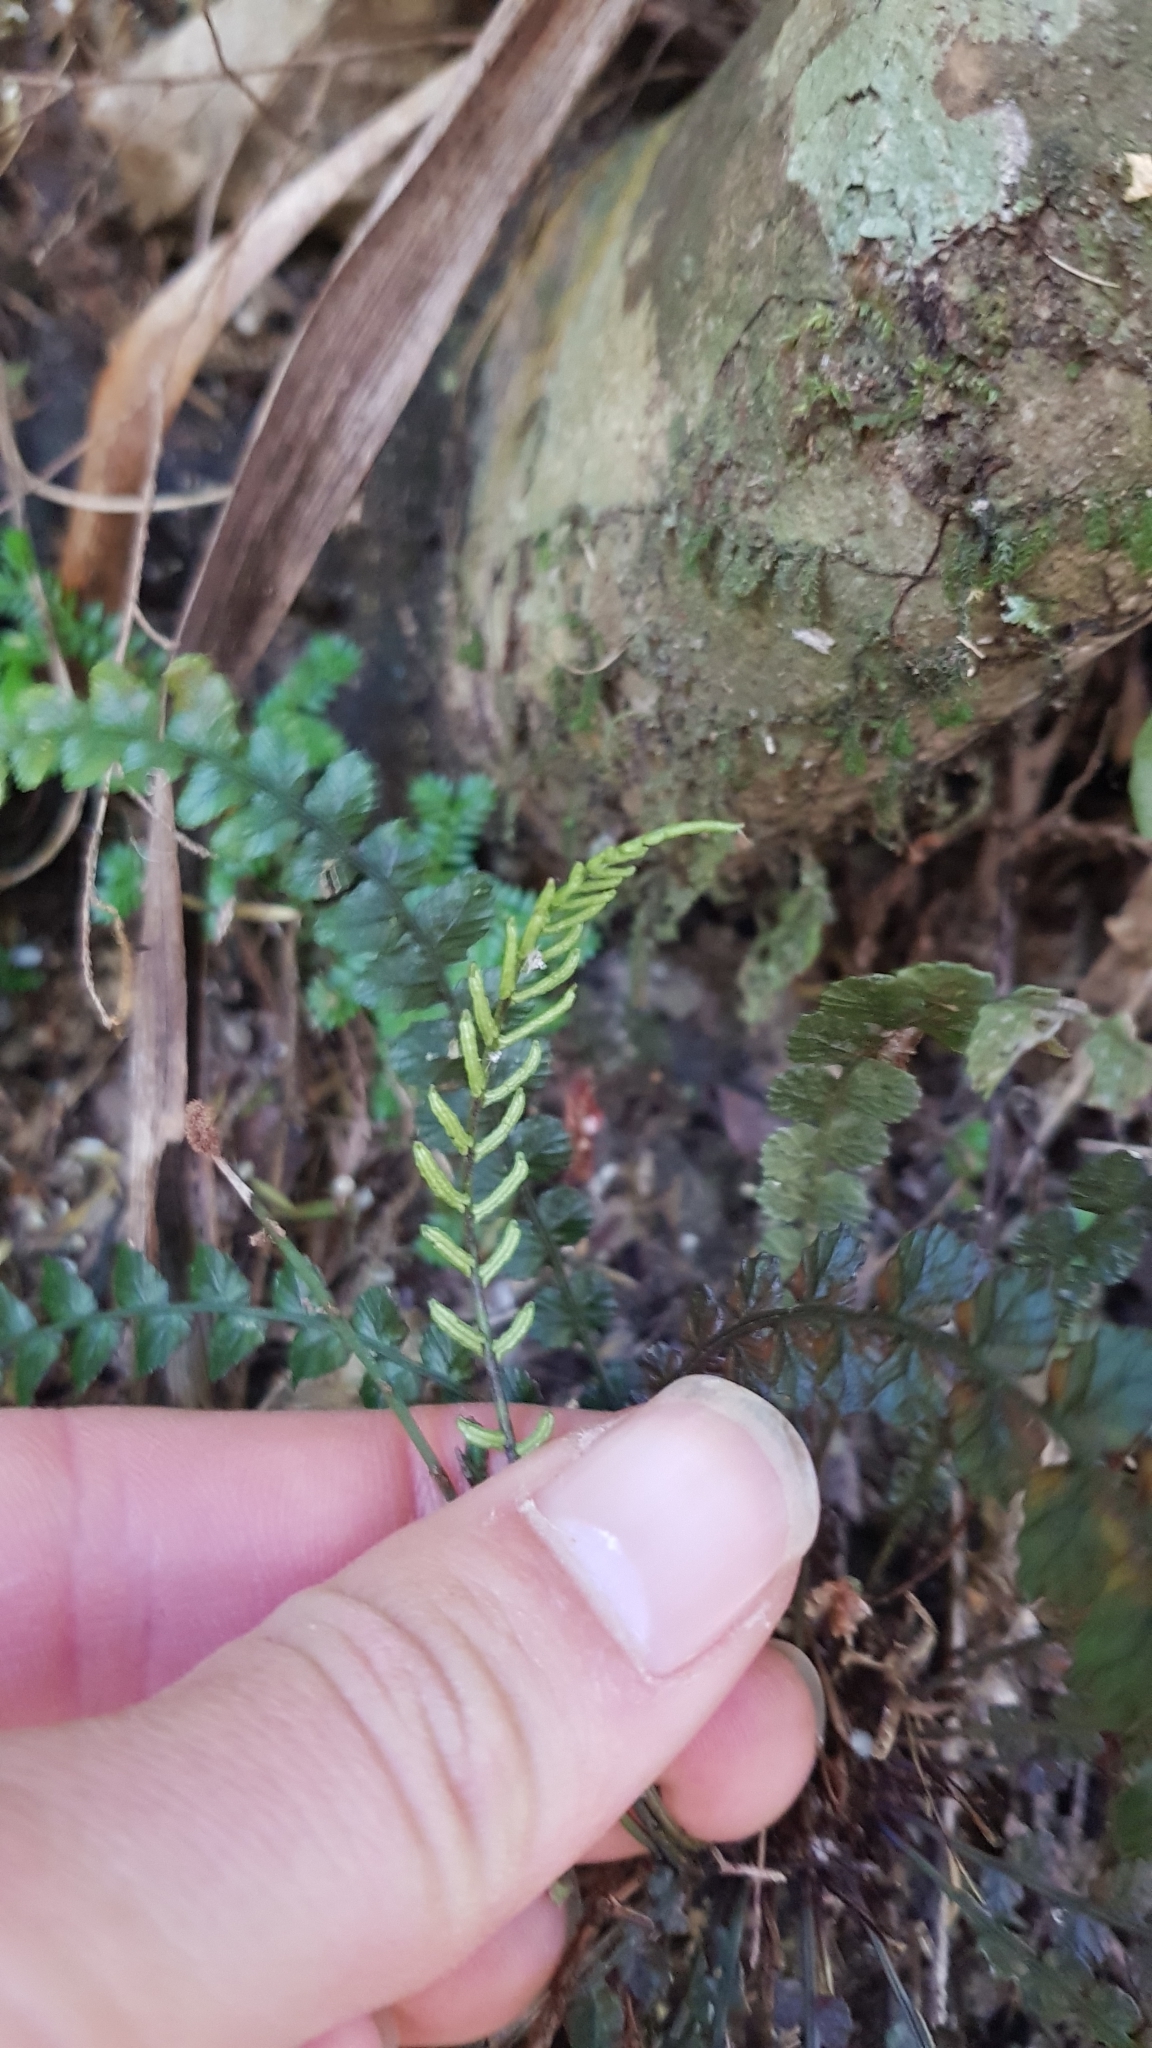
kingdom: Plantae
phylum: Tracheophyta
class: Polypodiopsida
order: Polypodiales
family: Blechnaceae
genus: Austroblechnum
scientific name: Austroblechnum membranaceum
